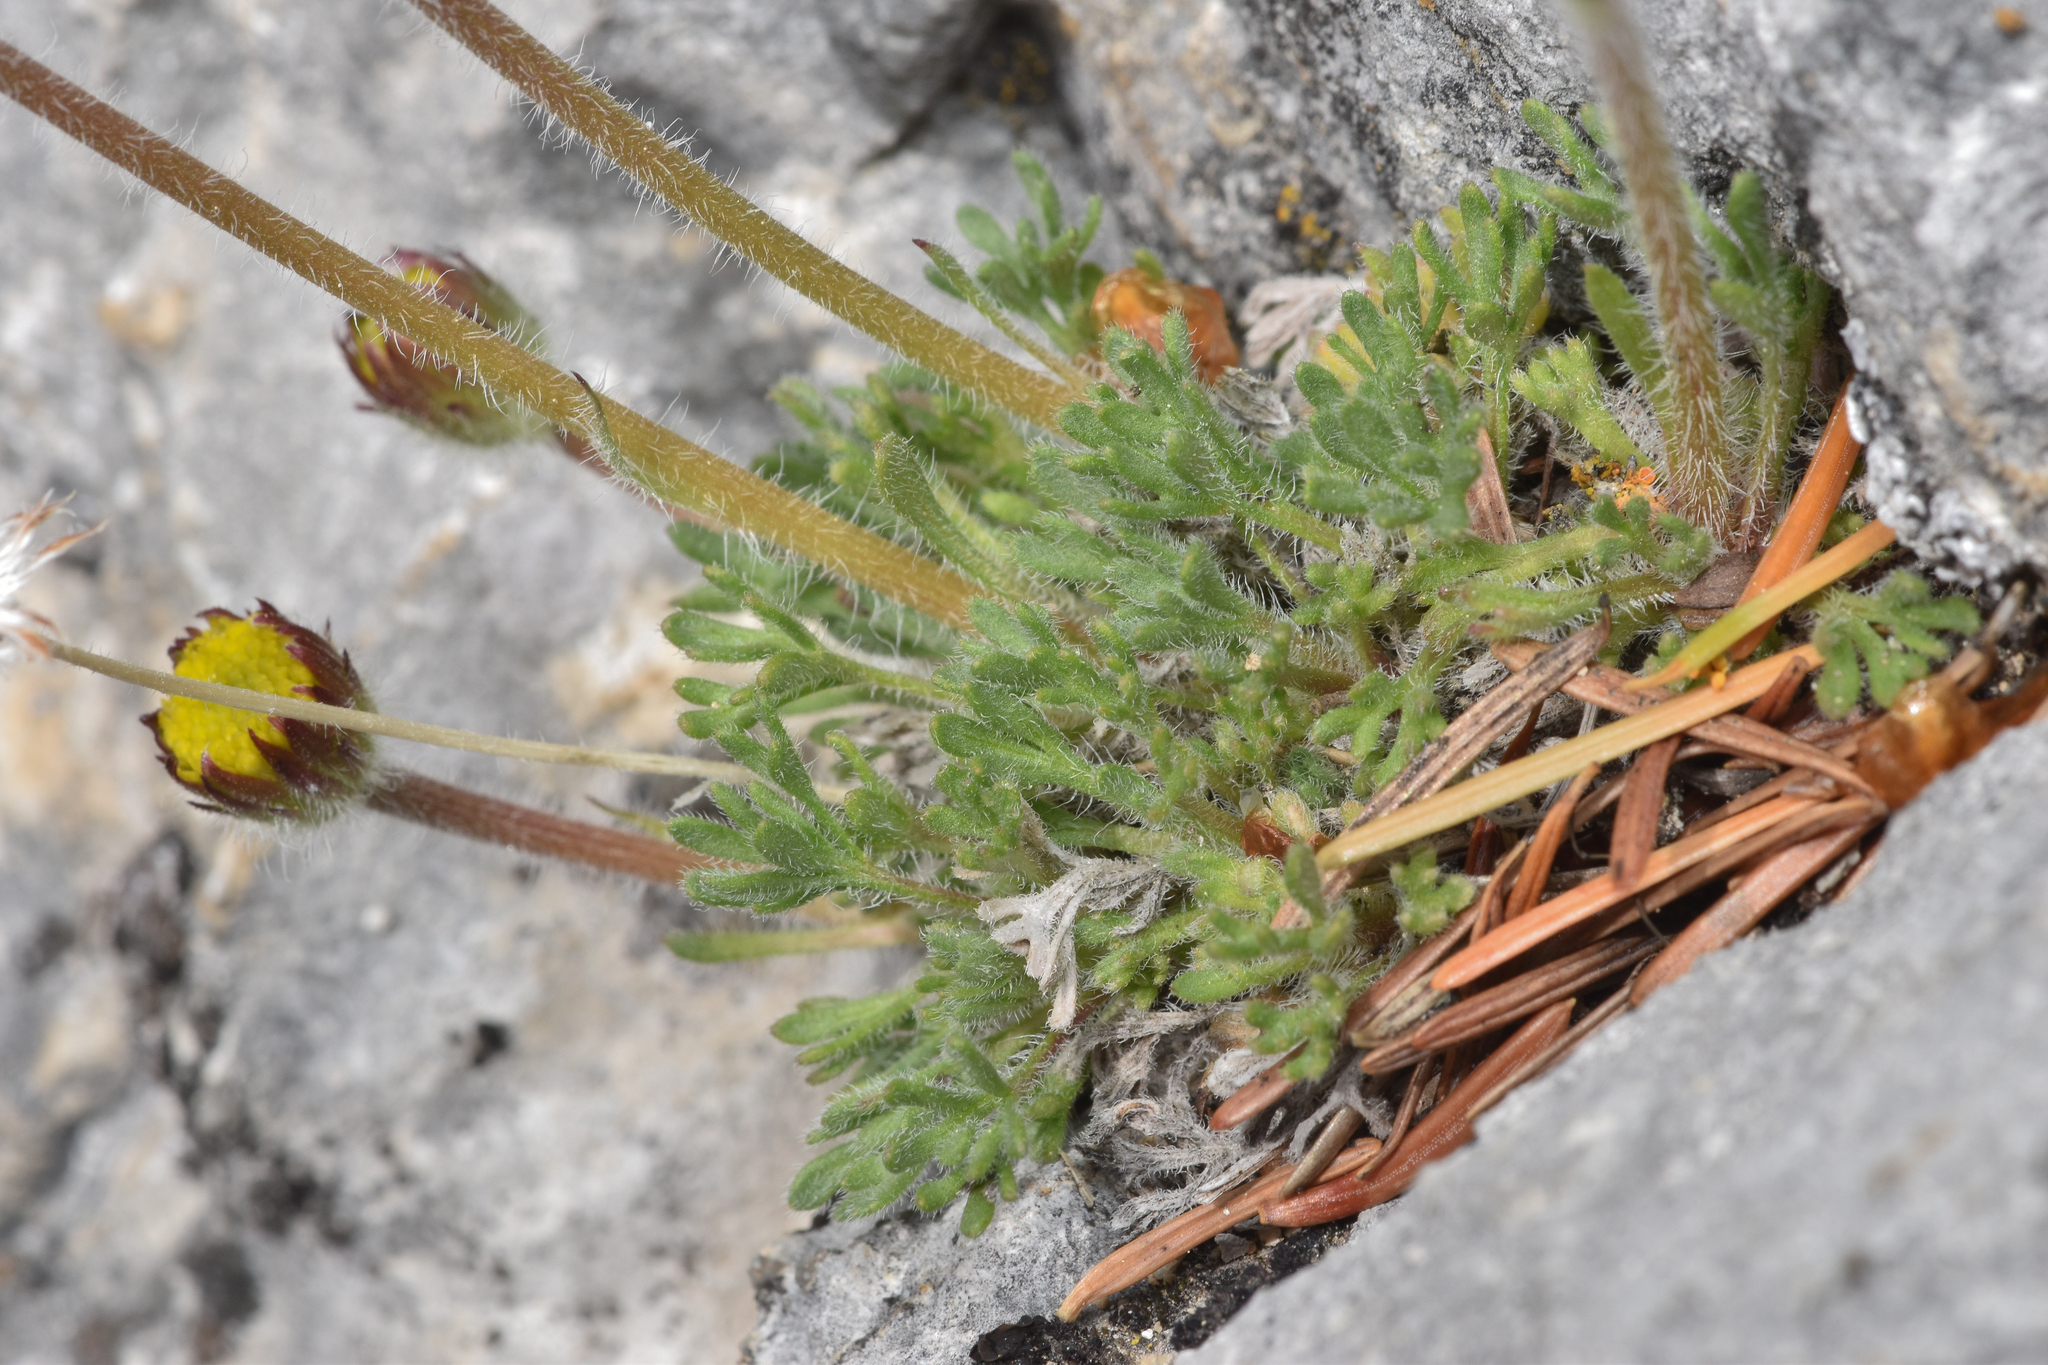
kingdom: Plantae
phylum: Tracheophyta
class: Magnoliopsida
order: Asterales
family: Asteraceae
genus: Erigeron
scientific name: Erigeron compositus
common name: Dwarf mountain fleabane
